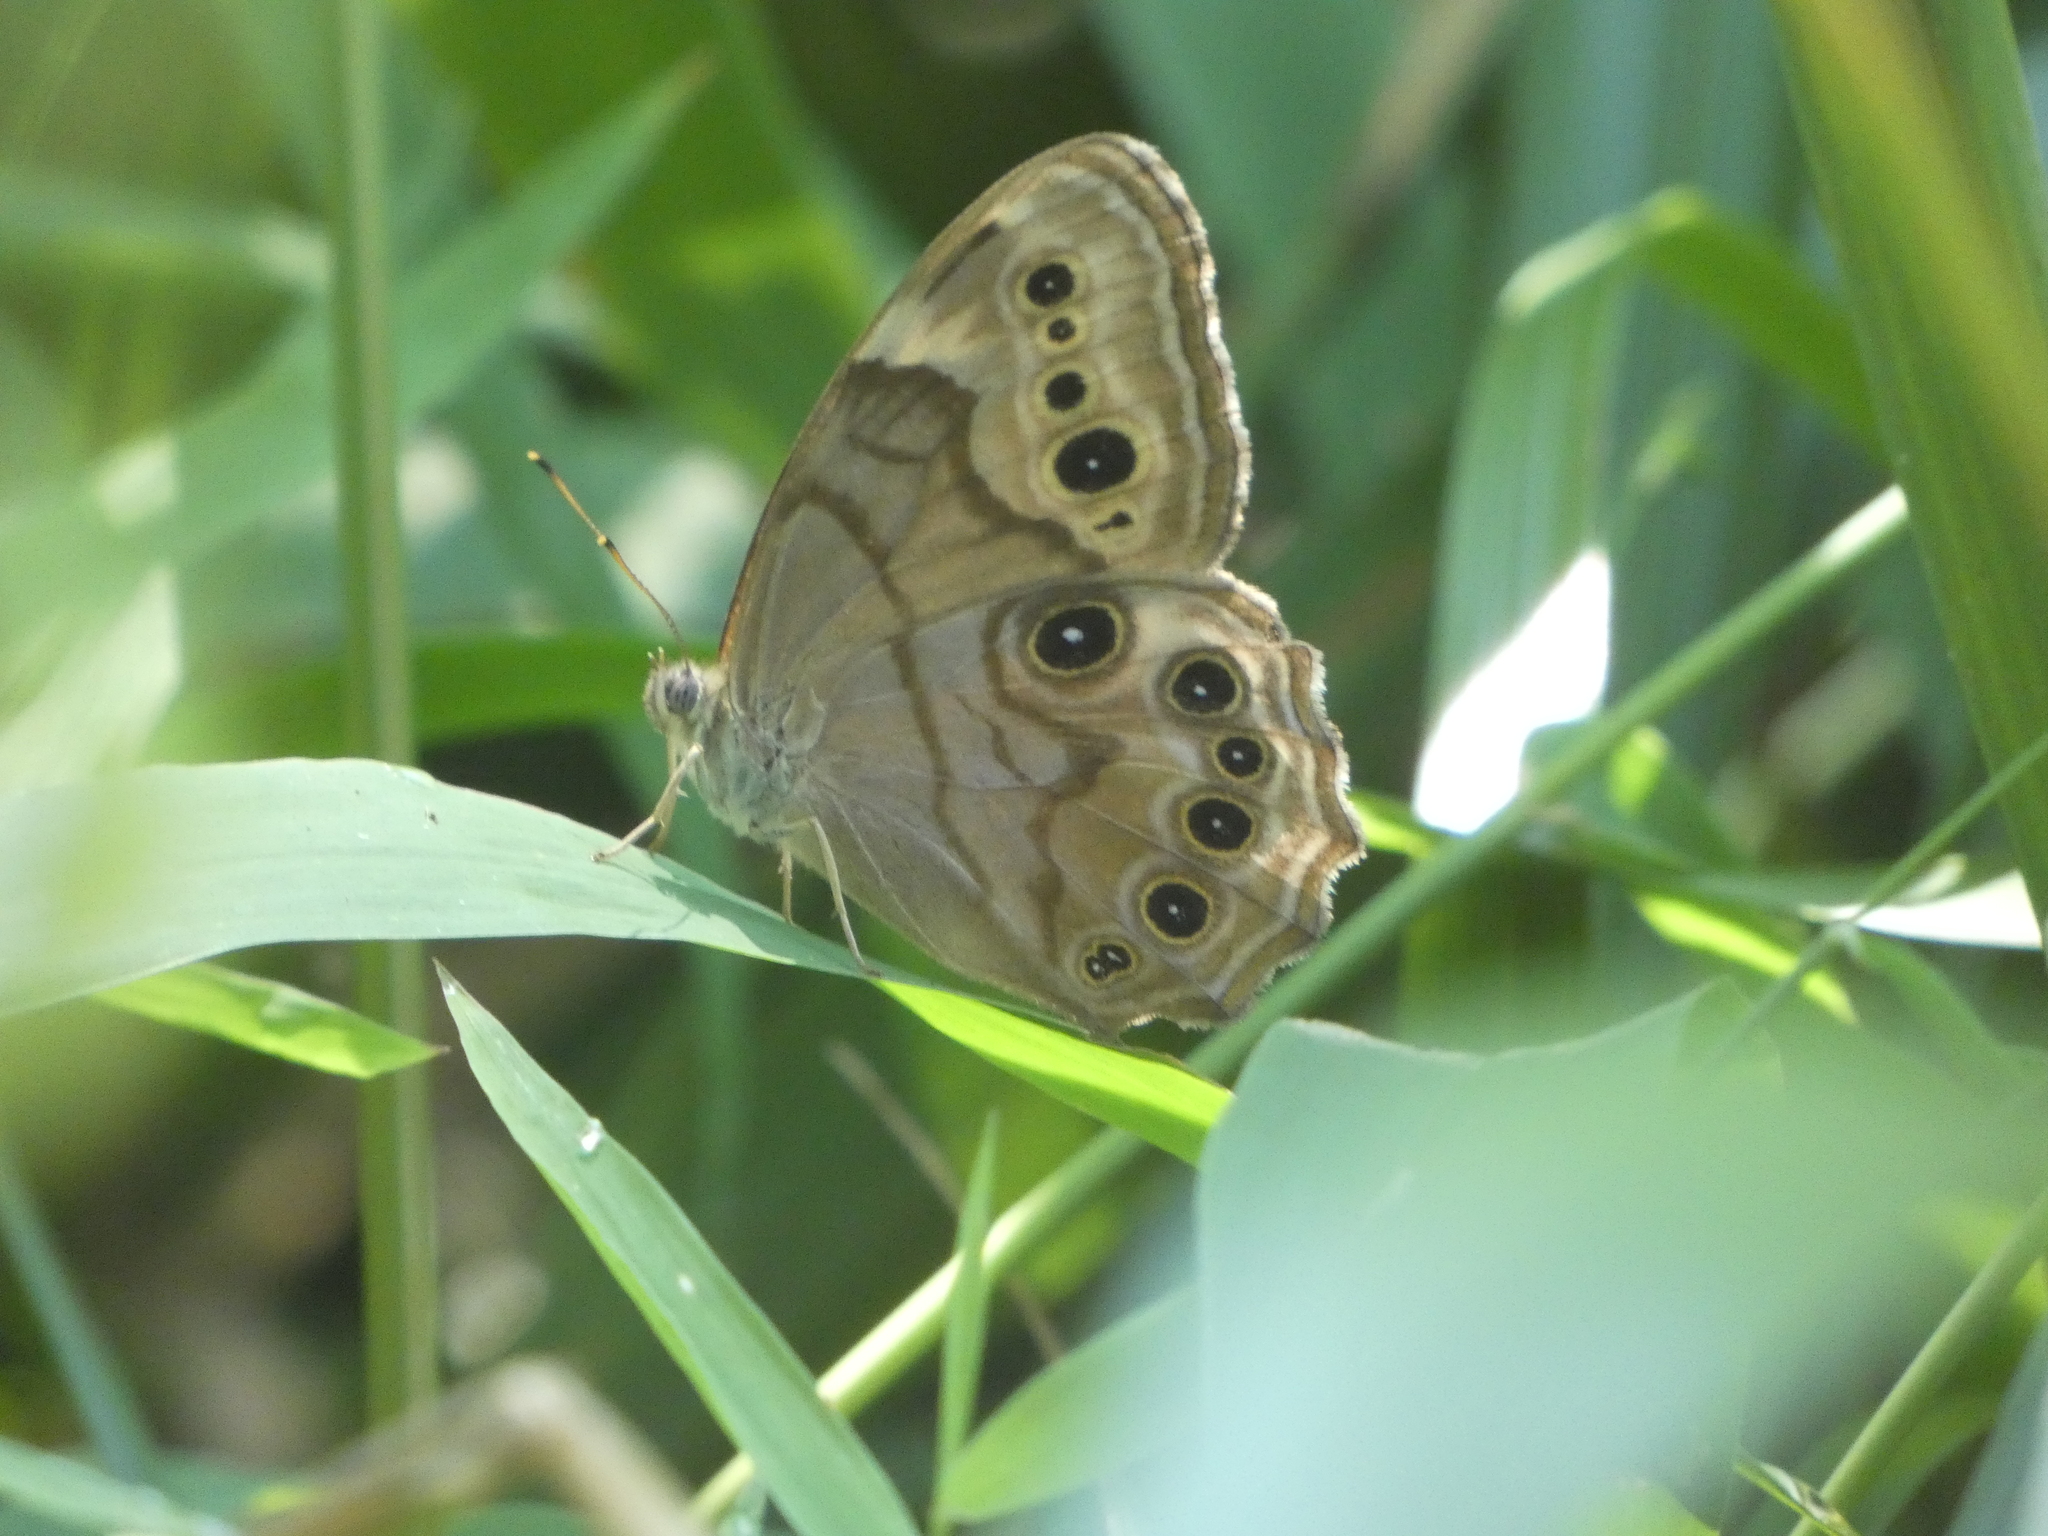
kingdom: Animalia
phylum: Arthropoda
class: Insecta
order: Lepidoptera
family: Nymphalidae
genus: Lethe
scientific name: Lethe anthedon
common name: Northern pearly-eye
